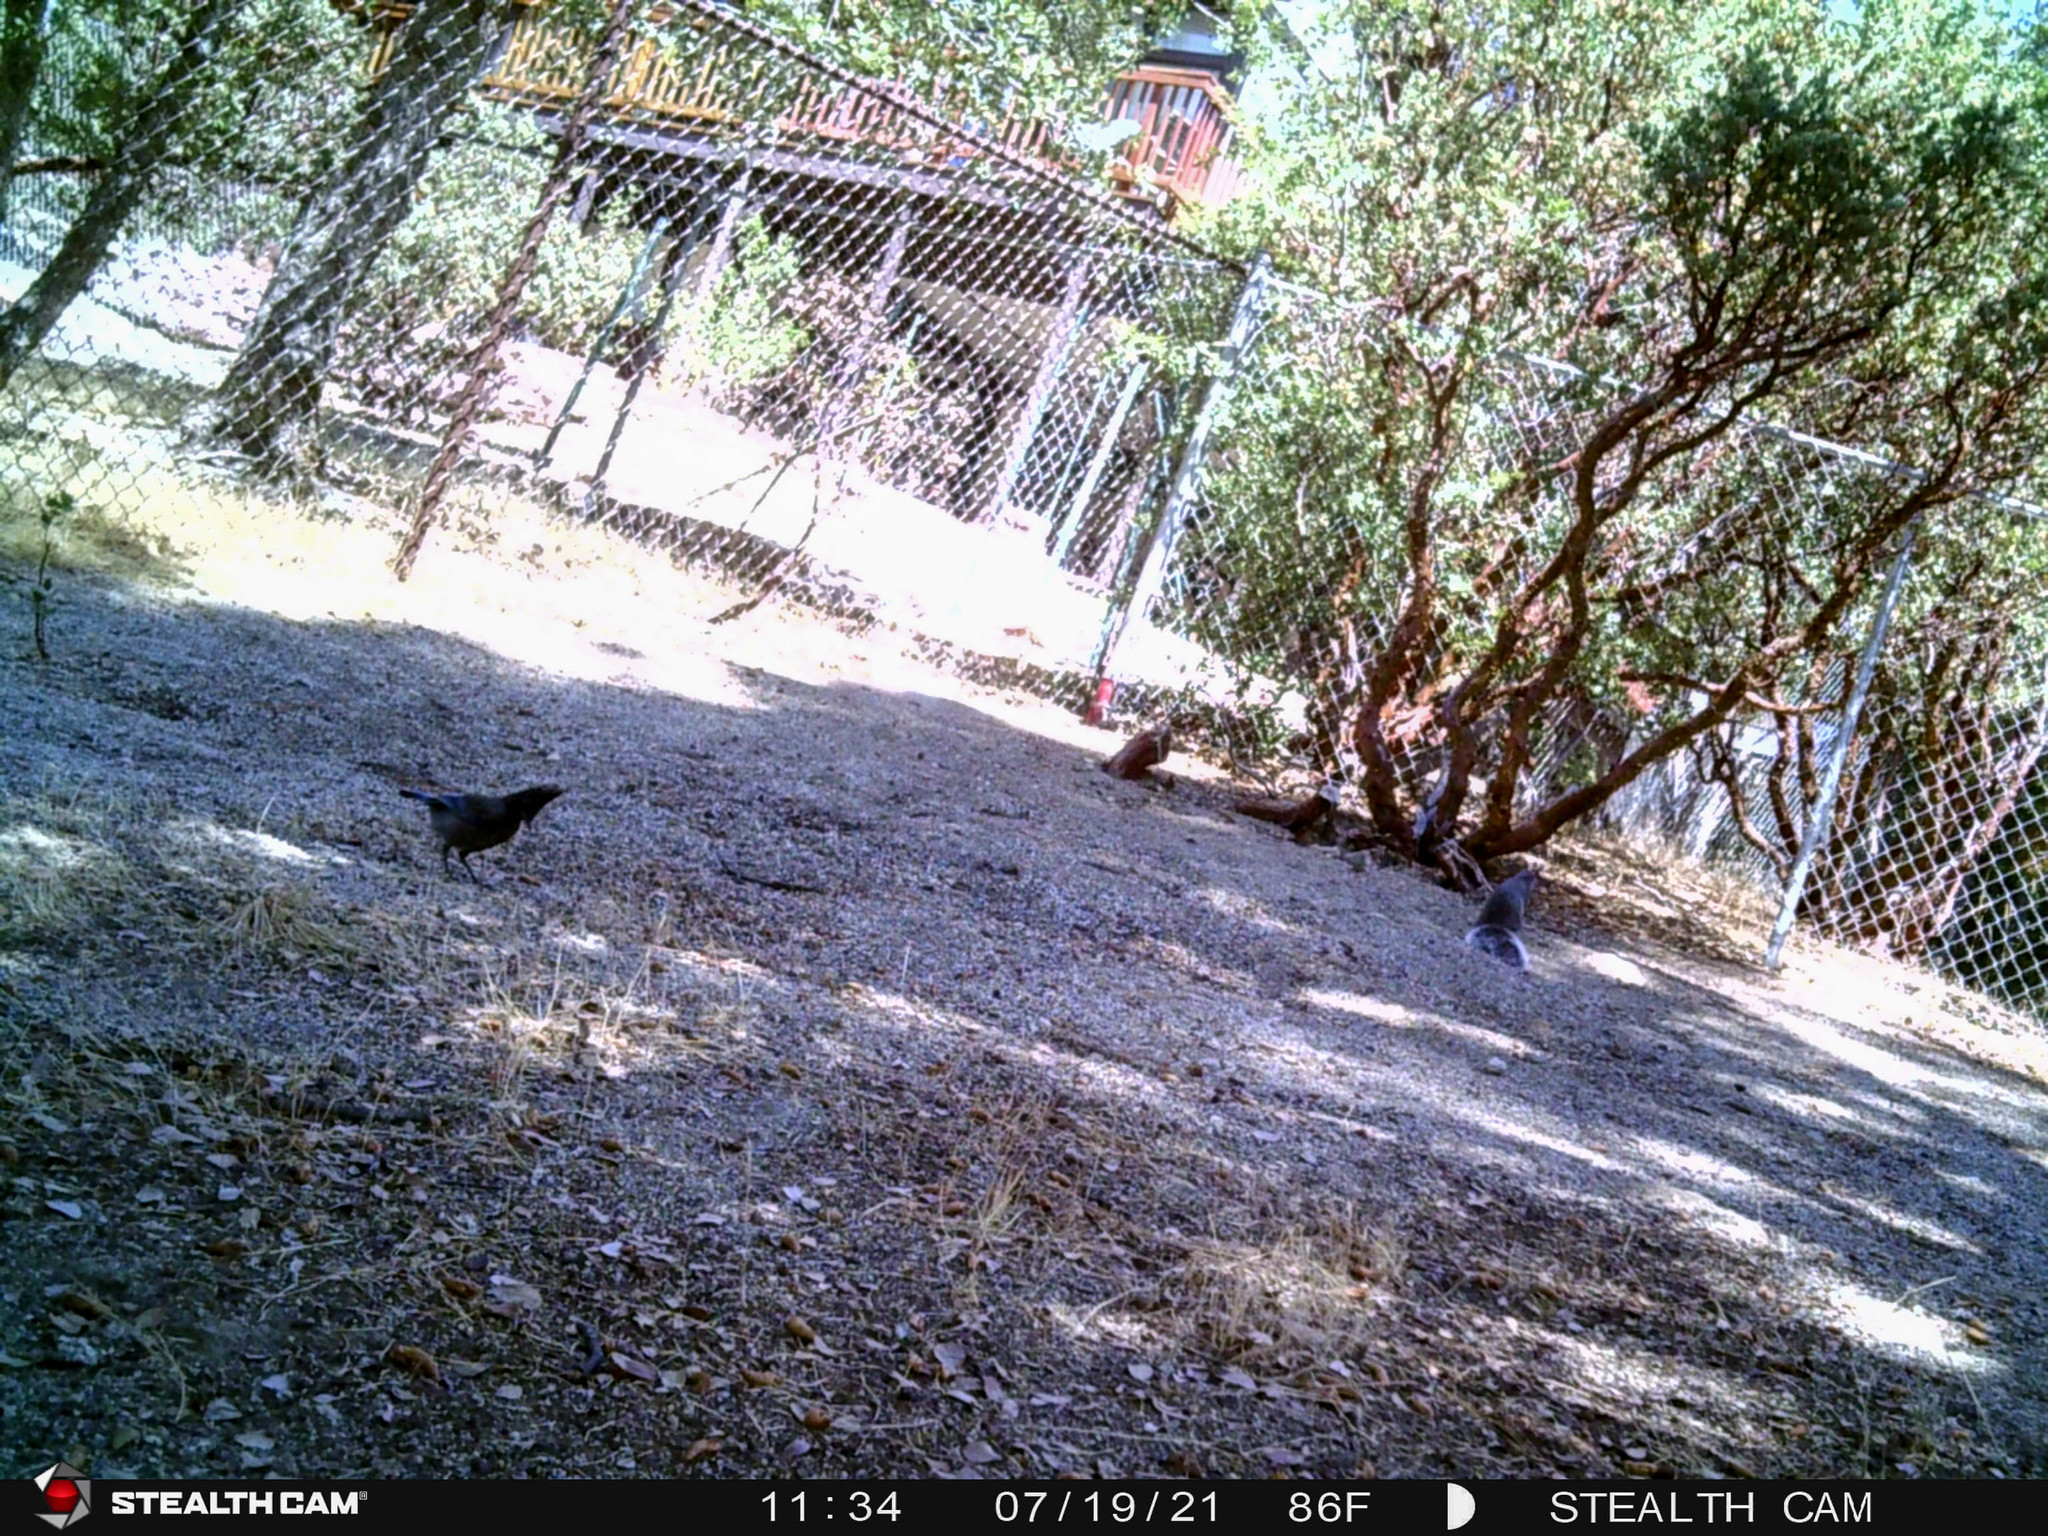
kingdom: Animalia
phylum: Chordata
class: Aves
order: Passeriformes
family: Corvidae
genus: Cyanocitta
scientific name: Cyanocitta stelleri
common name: Steller's jay
